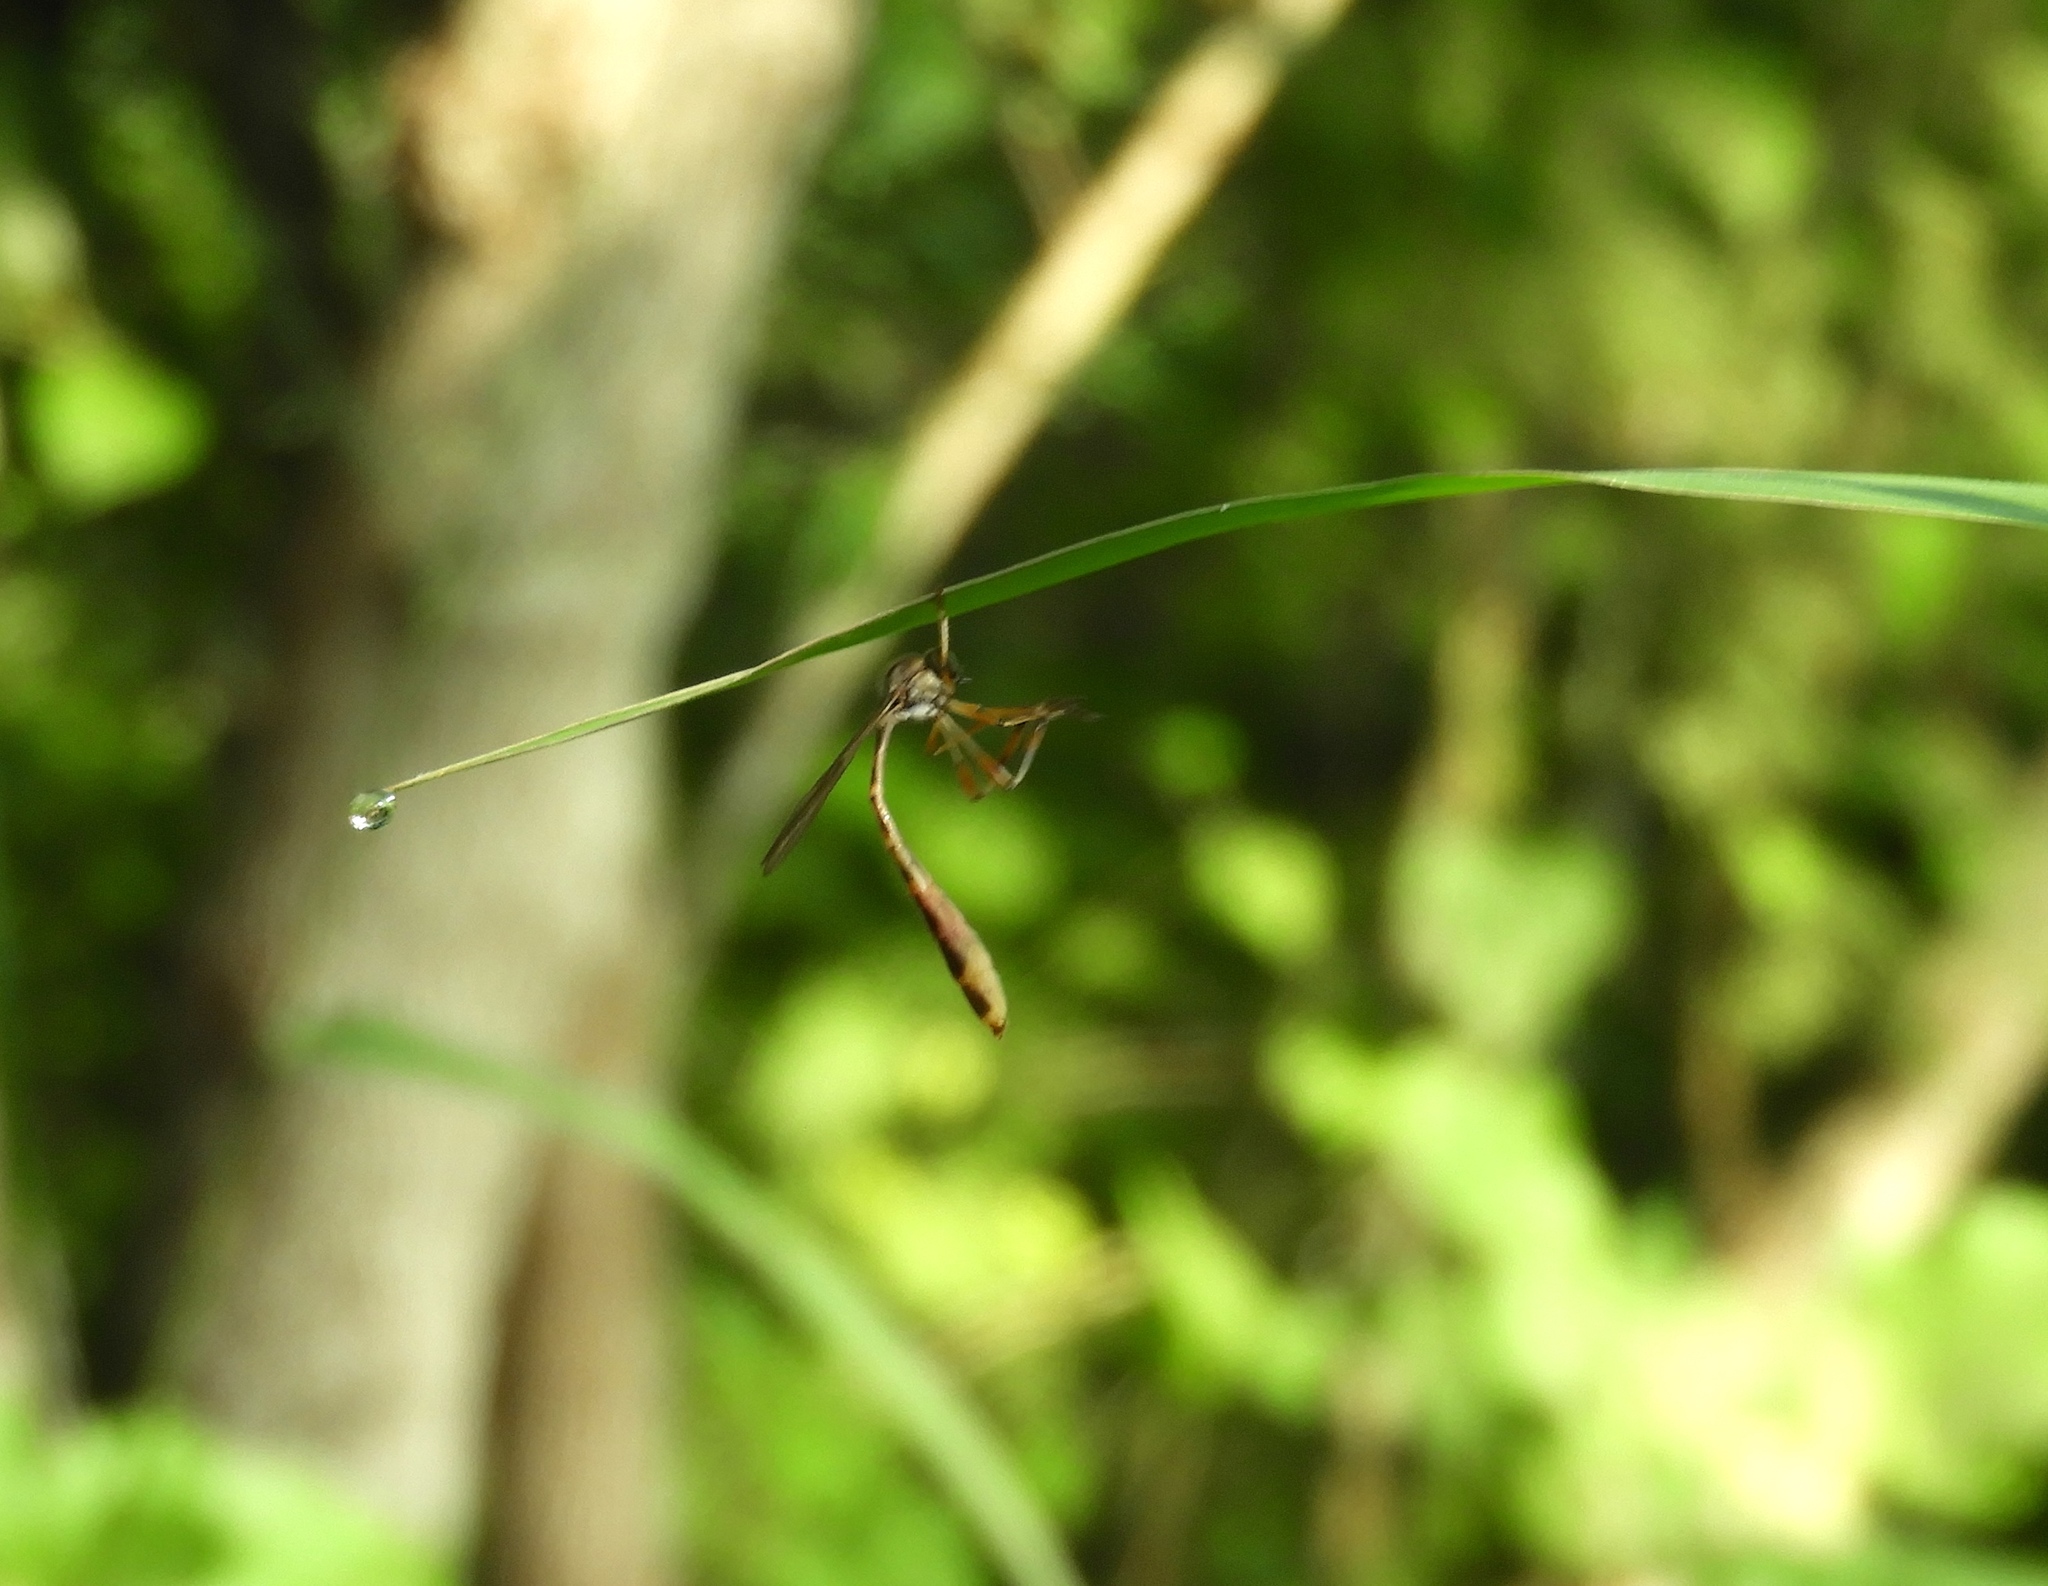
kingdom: Animalia
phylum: Arthropoda
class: Insecta
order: Diptera
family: Asilidae
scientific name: Asilidae
